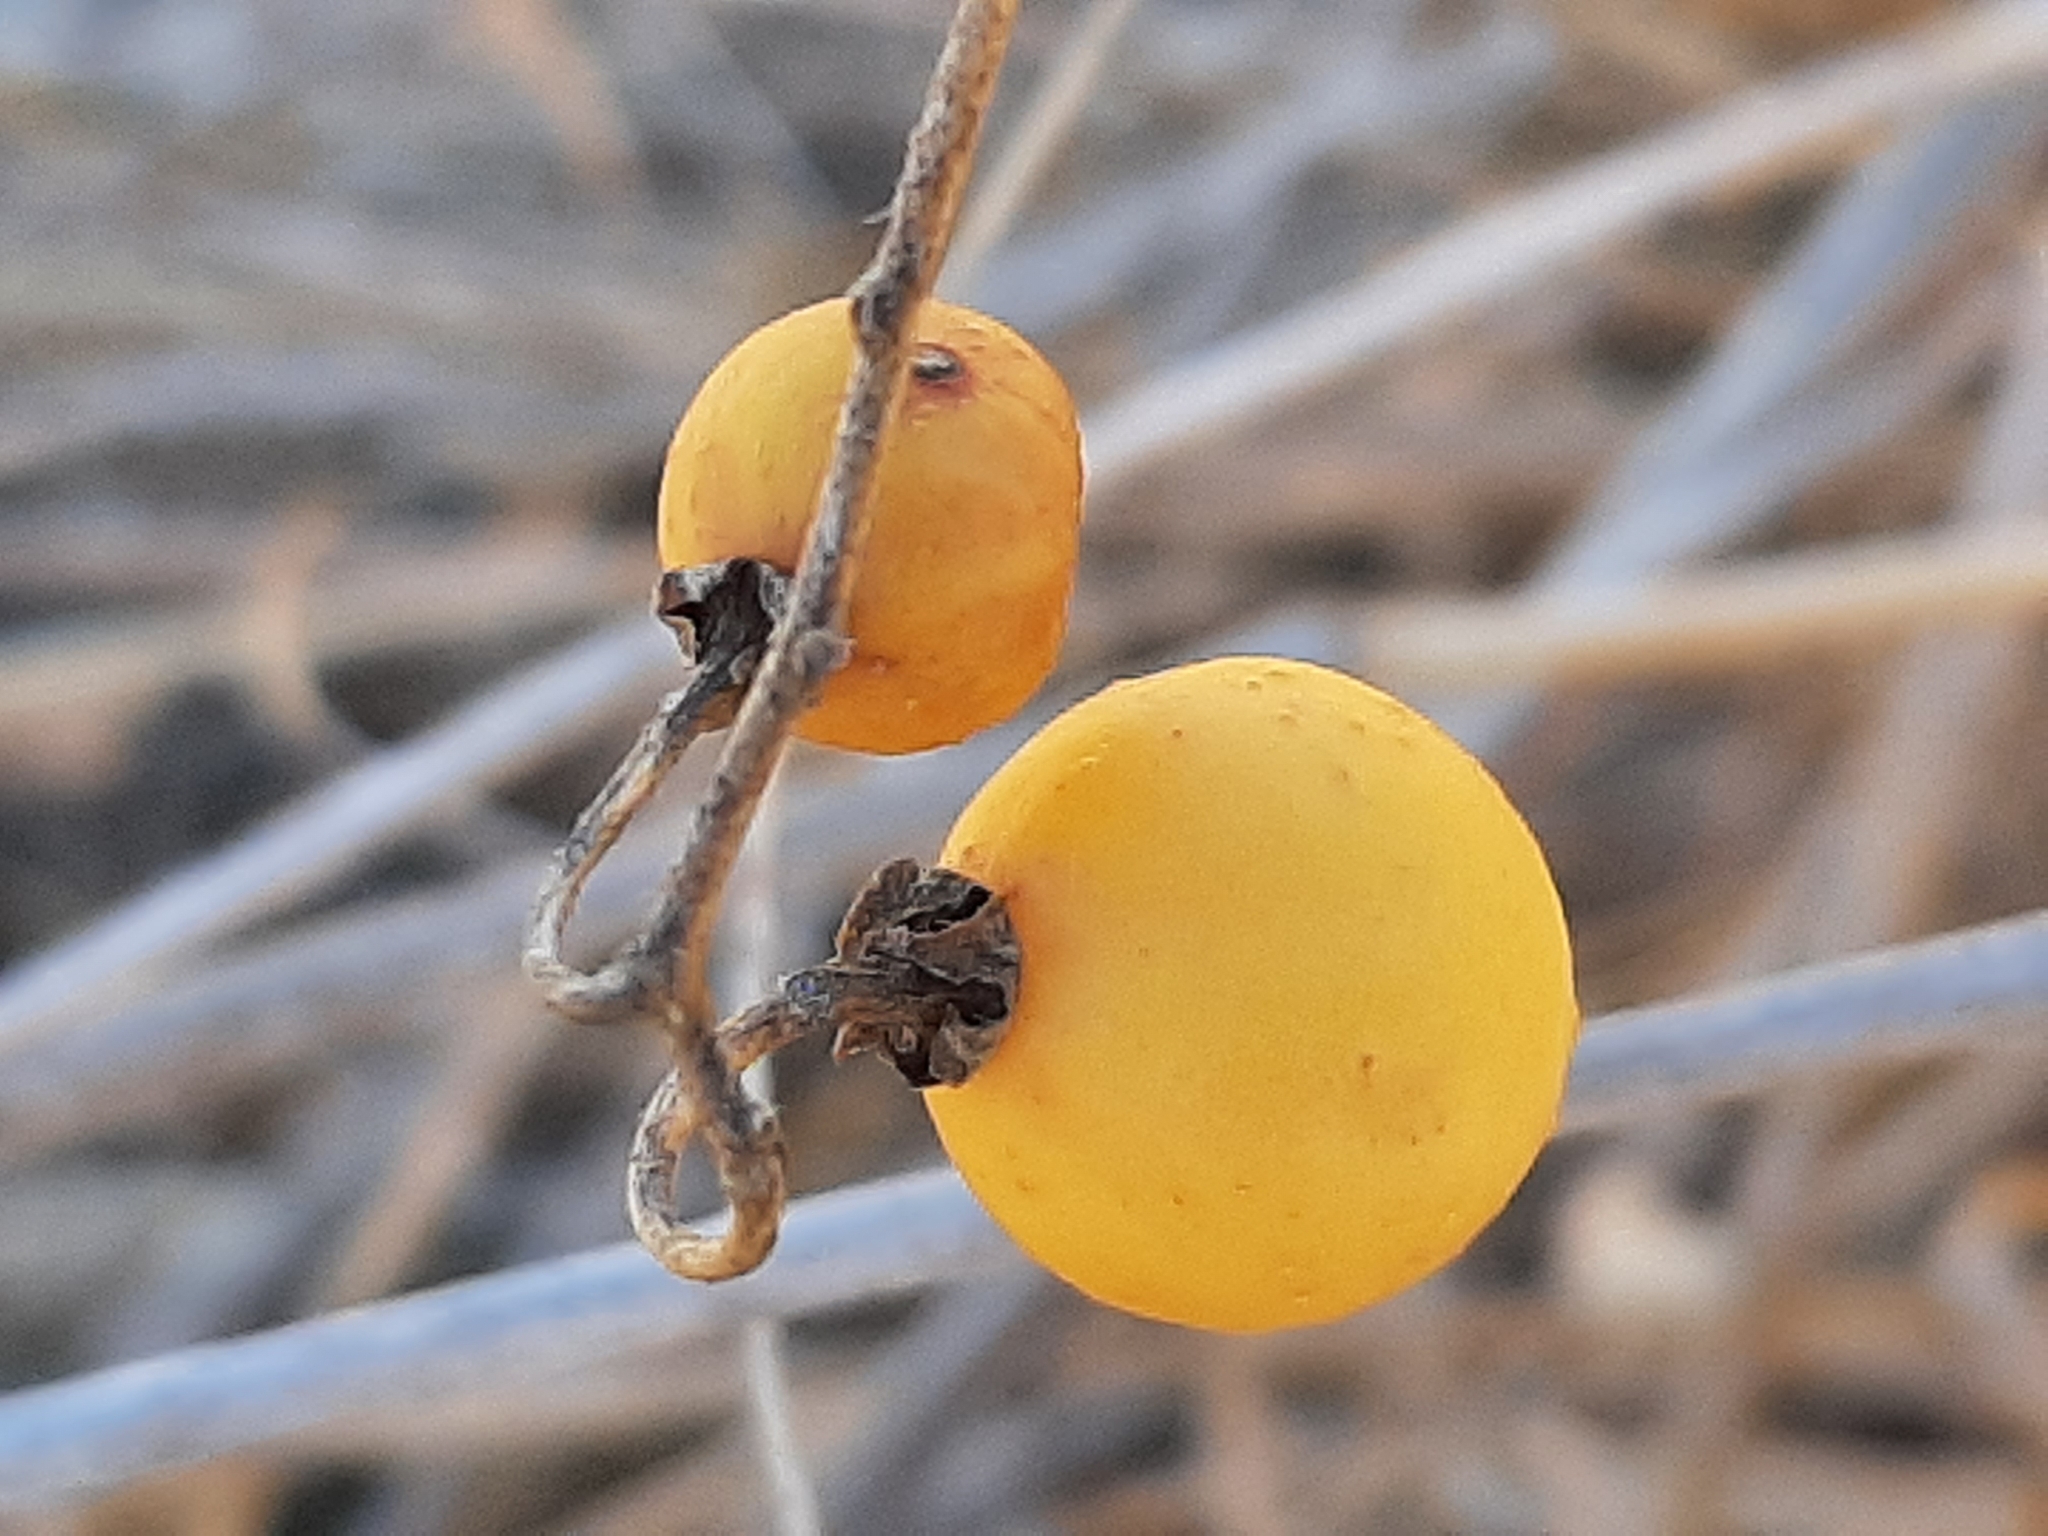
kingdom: Plantae
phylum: Tracheophyta
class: Magnoliopsida
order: Solanales
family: Solanaceae
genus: Solanum
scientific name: Solanum carolinense
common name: Horse-nettle
